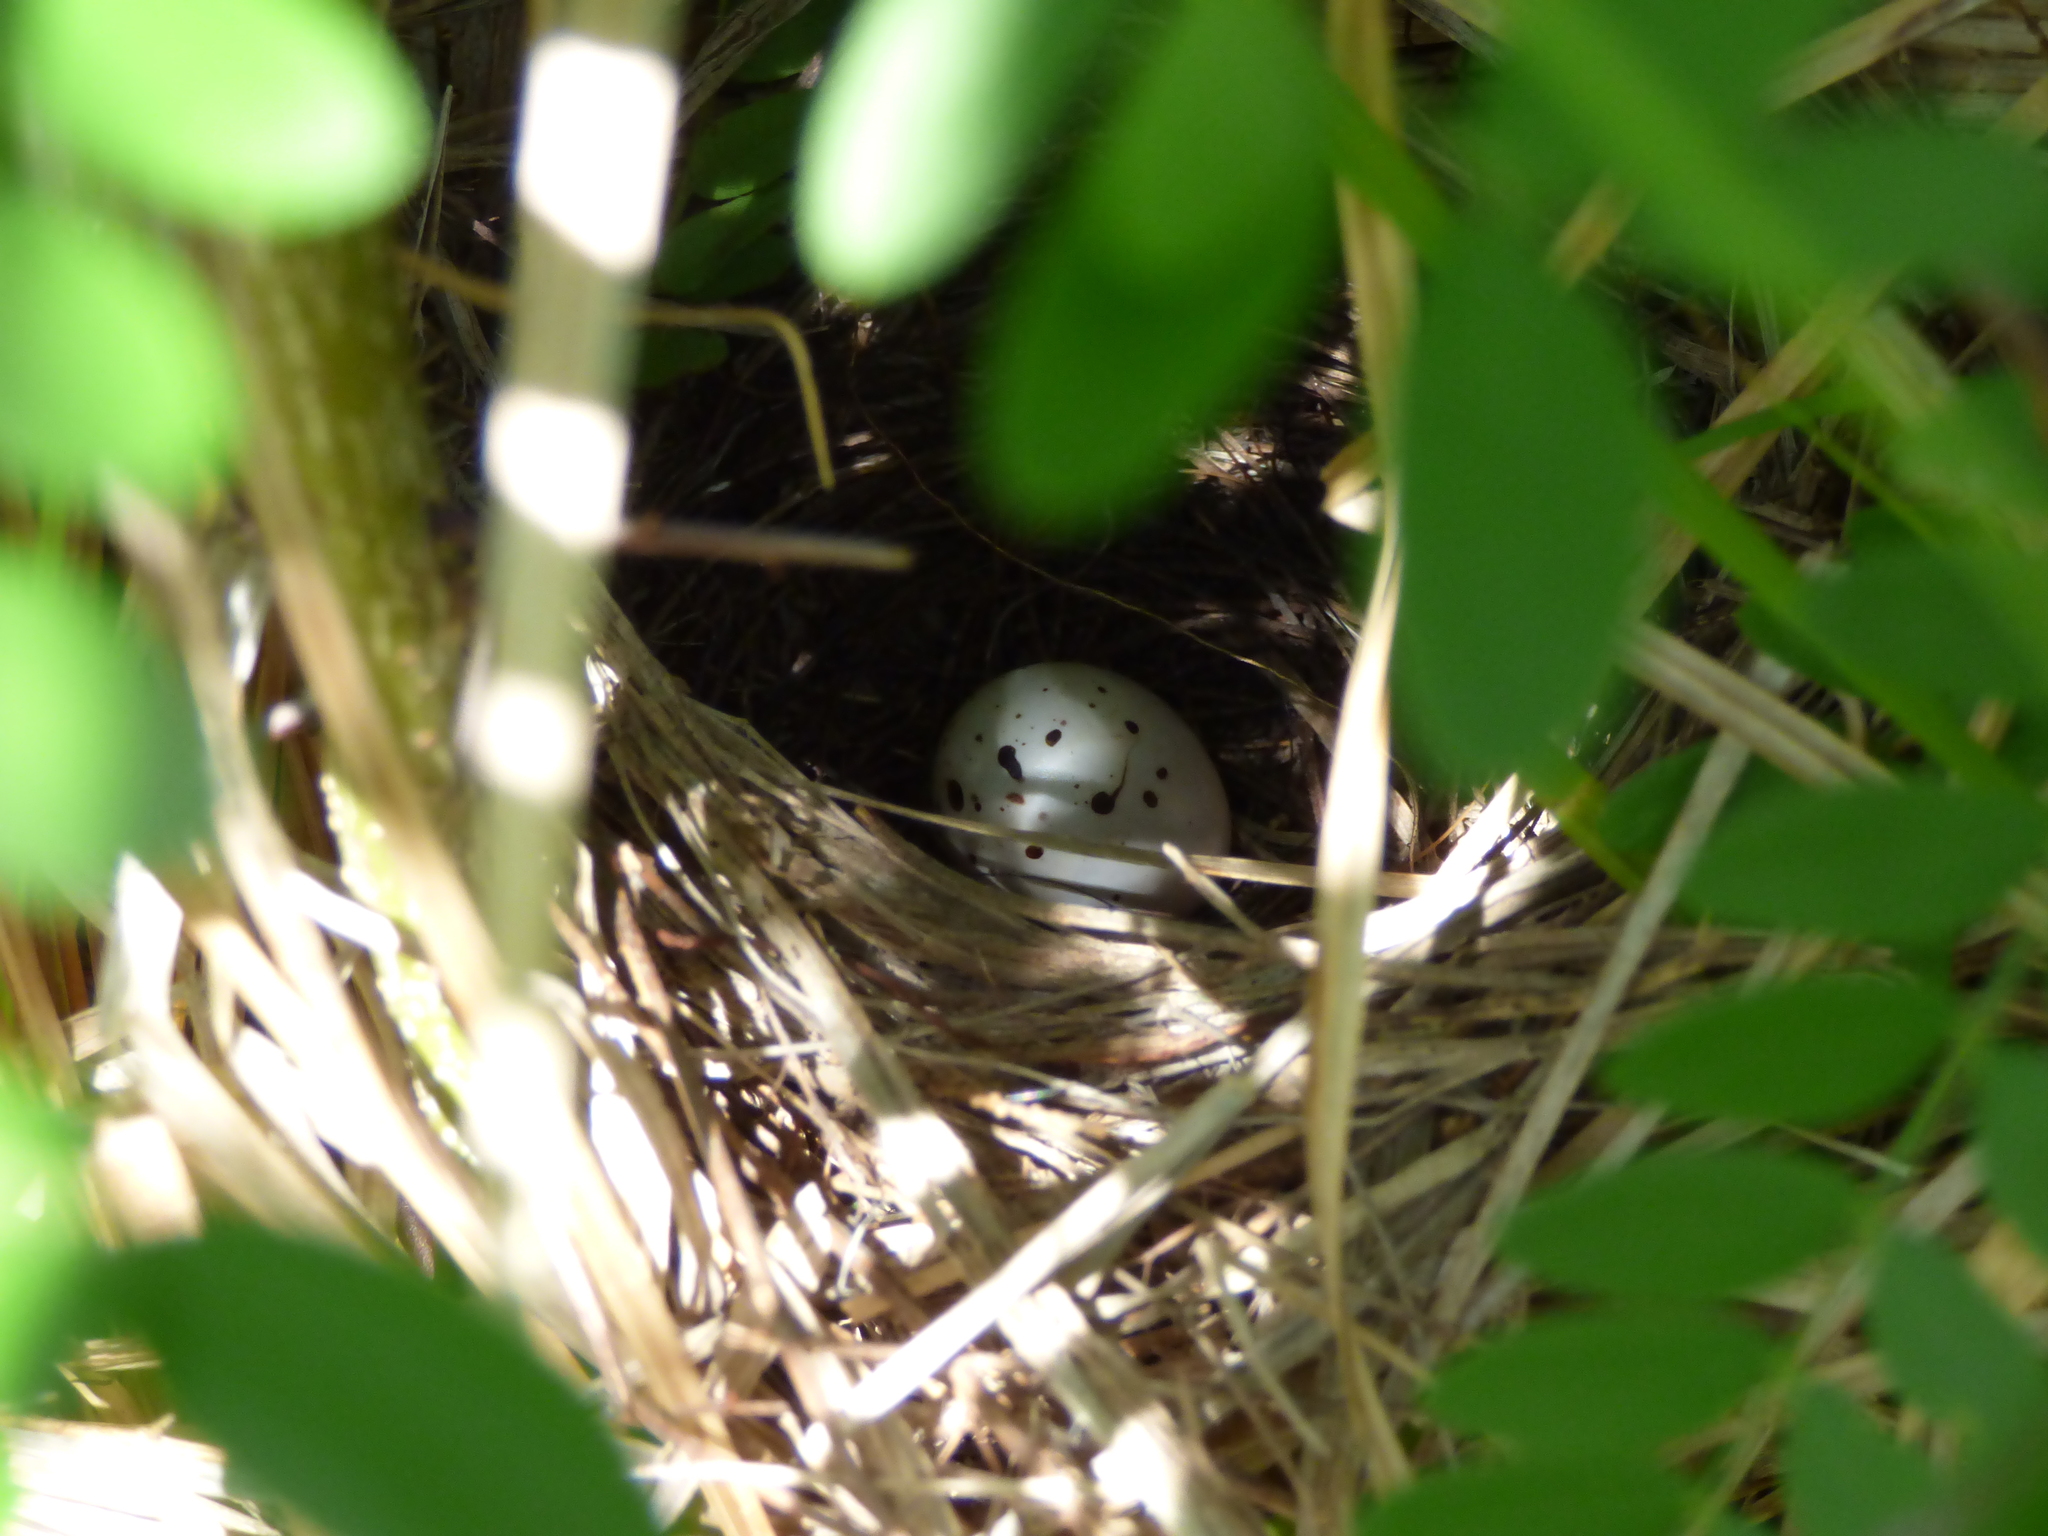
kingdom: Animalia
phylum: Chordata
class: Aves
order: Passeriformes
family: Thraupidae
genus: Microspingus
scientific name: Microspingus melanoleucus
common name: Black-capped warbling-finch
